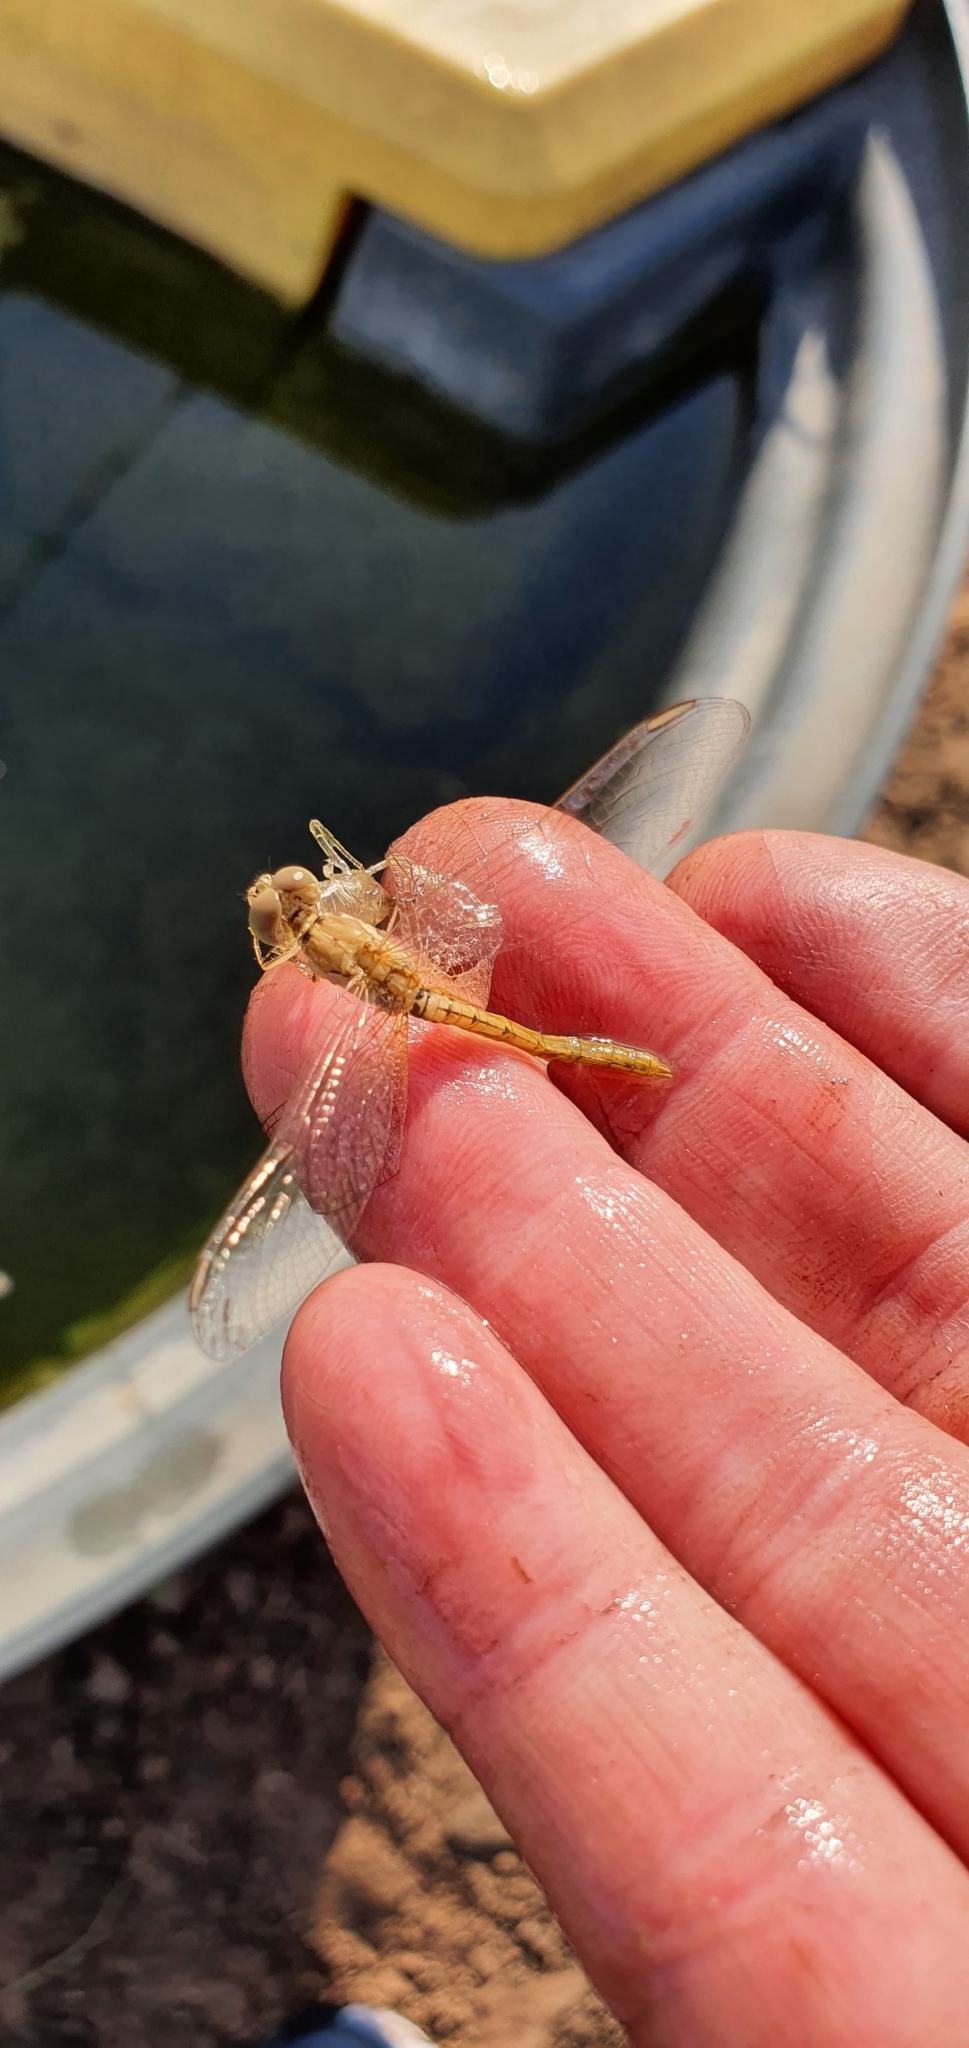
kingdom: Animalia
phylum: Arthropoda
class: Insecta
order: Odonata
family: Libellulidae
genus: Diplacodes
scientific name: Diplacodes haematodes
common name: Scarlet percher
